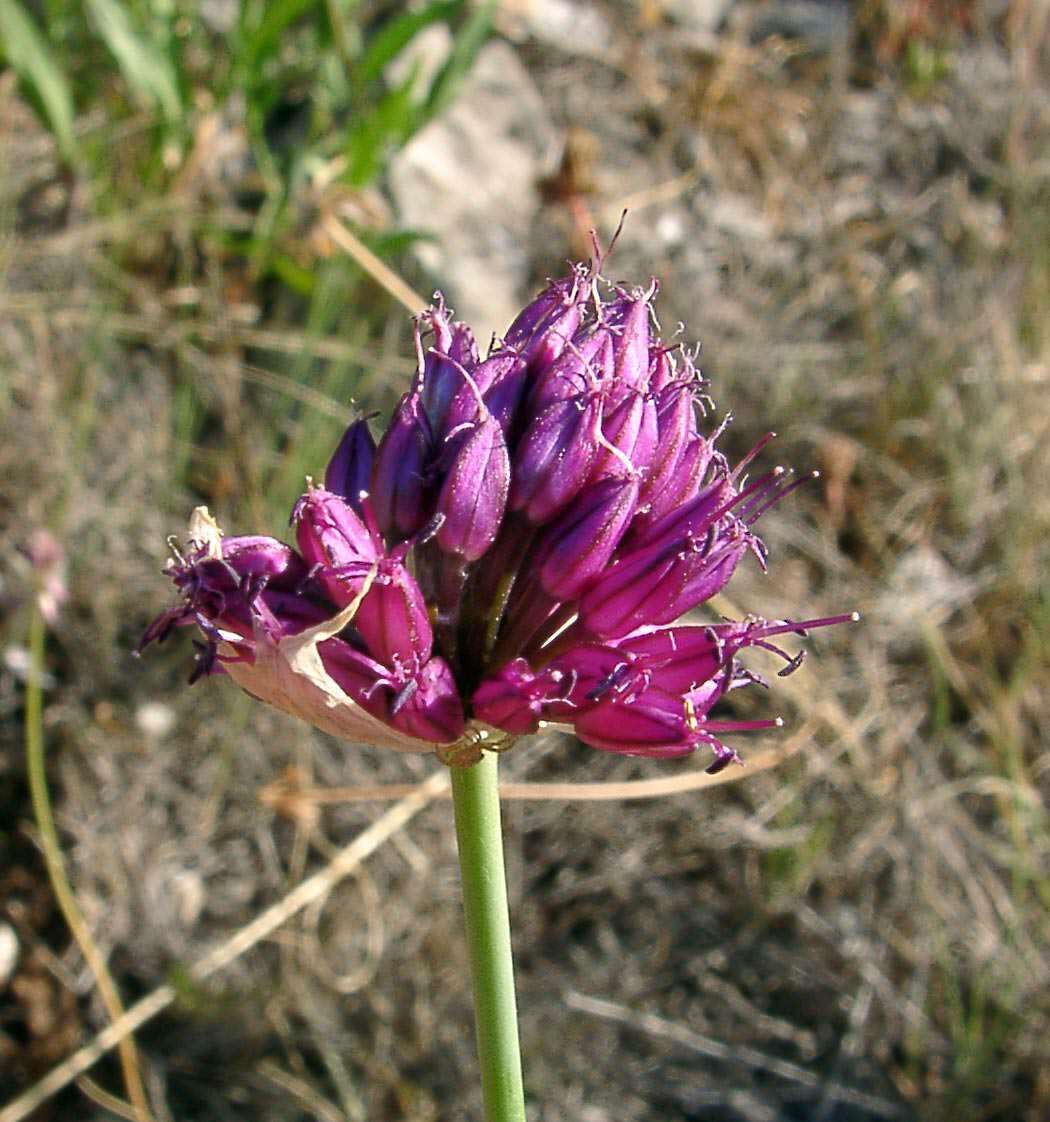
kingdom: Plantae
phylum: Tracheophyta
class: Liliopsida
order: Asparagales
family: Amaryllidaceae
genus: Allium
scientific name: Allium sphaerocephalon
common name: Round-headed leek
